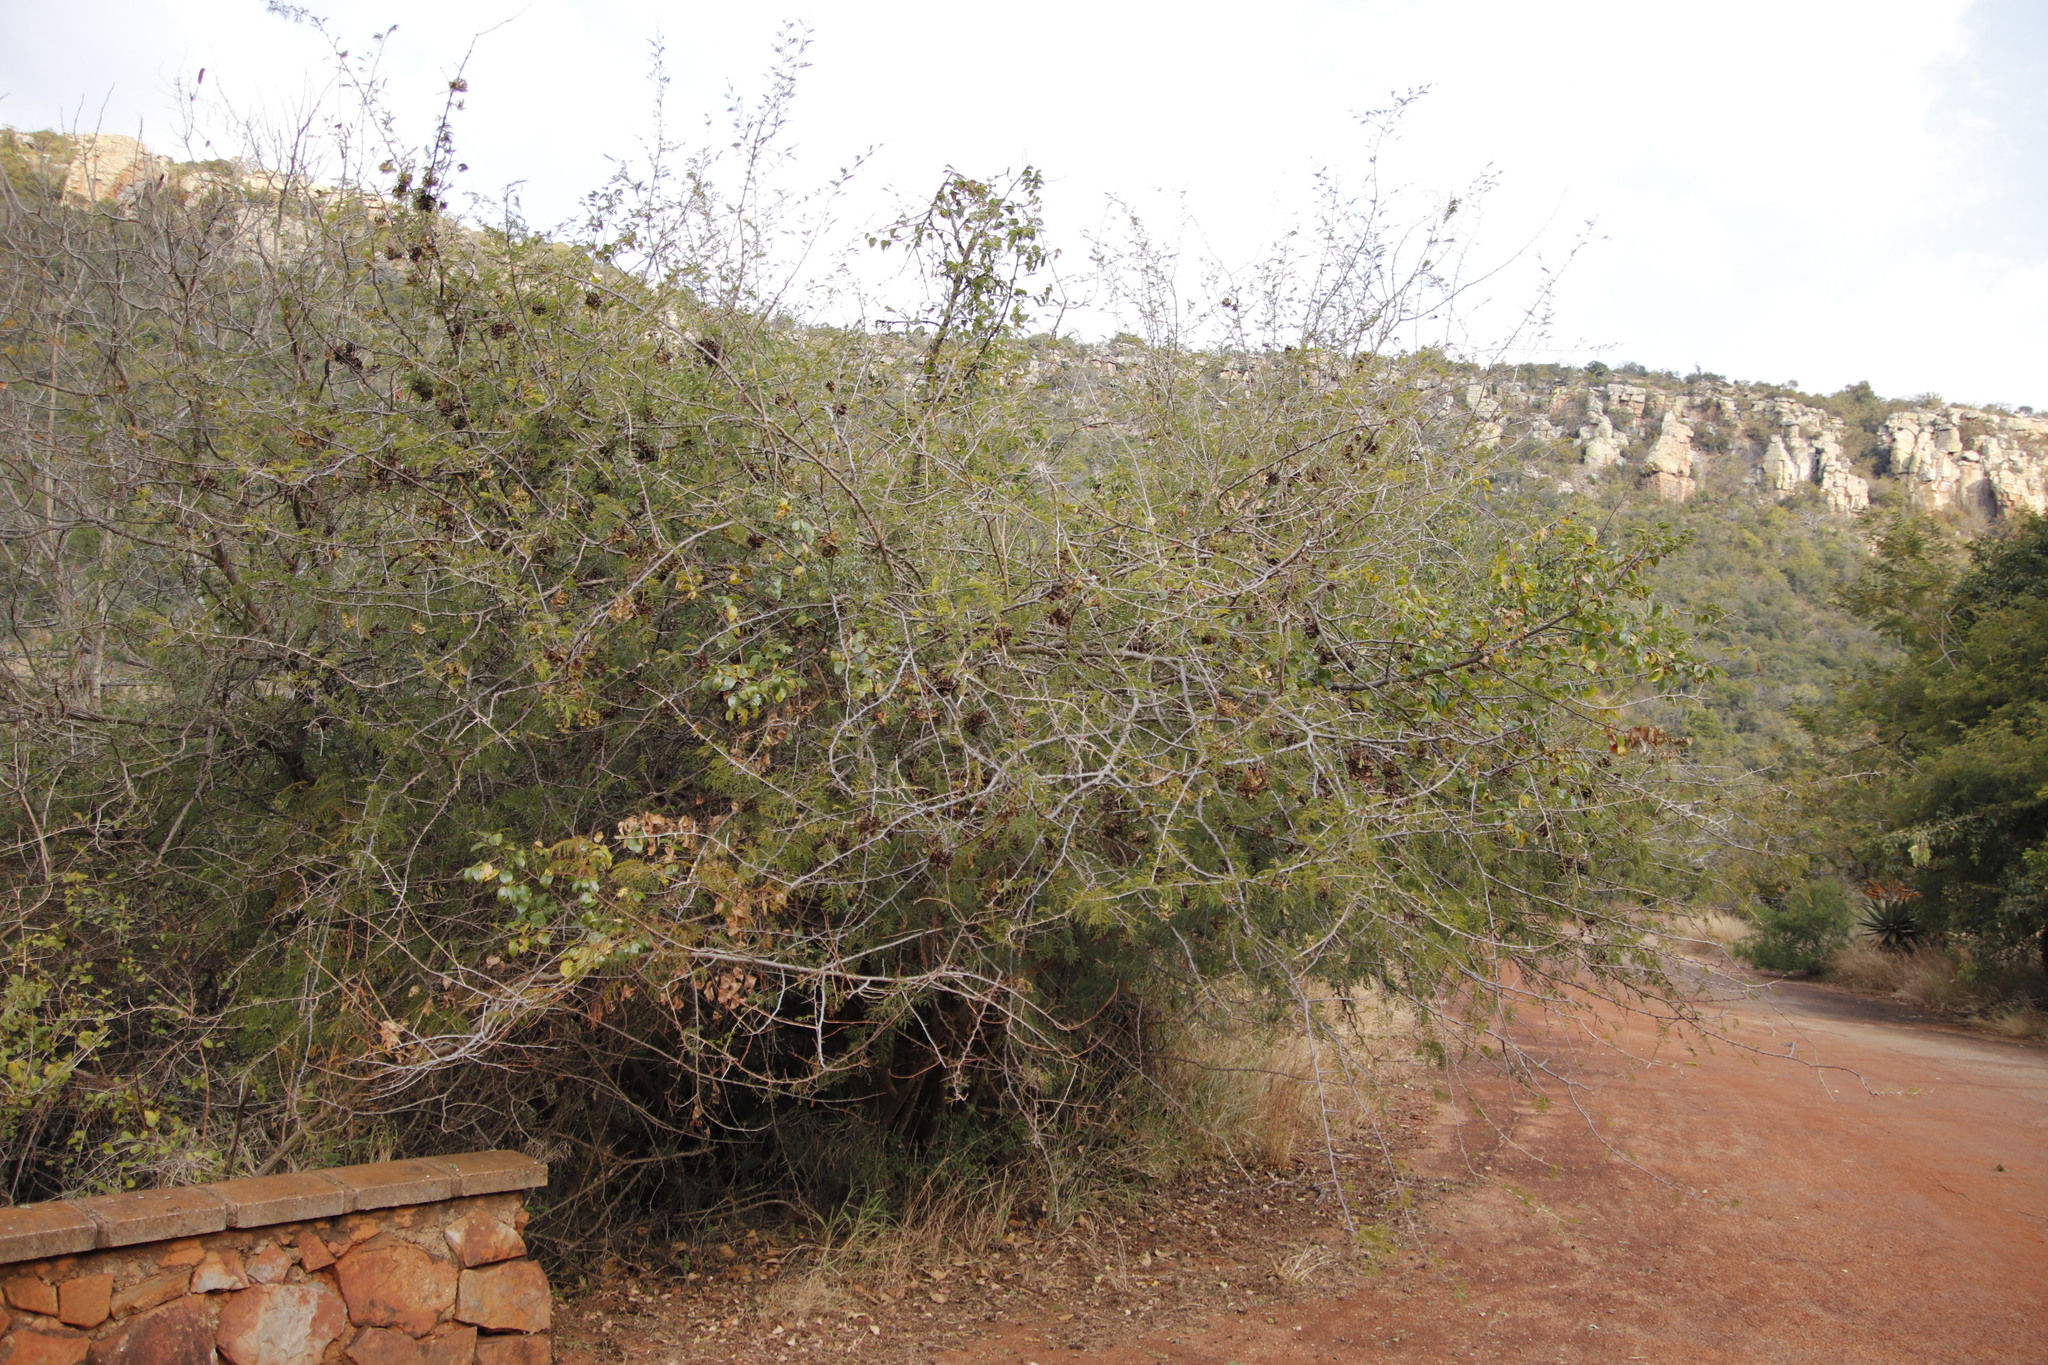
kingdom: Plantae
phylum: Tracheophyta
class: Magnoliopsida
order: Fabales
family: Fabaceae
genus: Dichrostachys
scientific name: Dichrostachys cinerea
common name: Sicklebush
